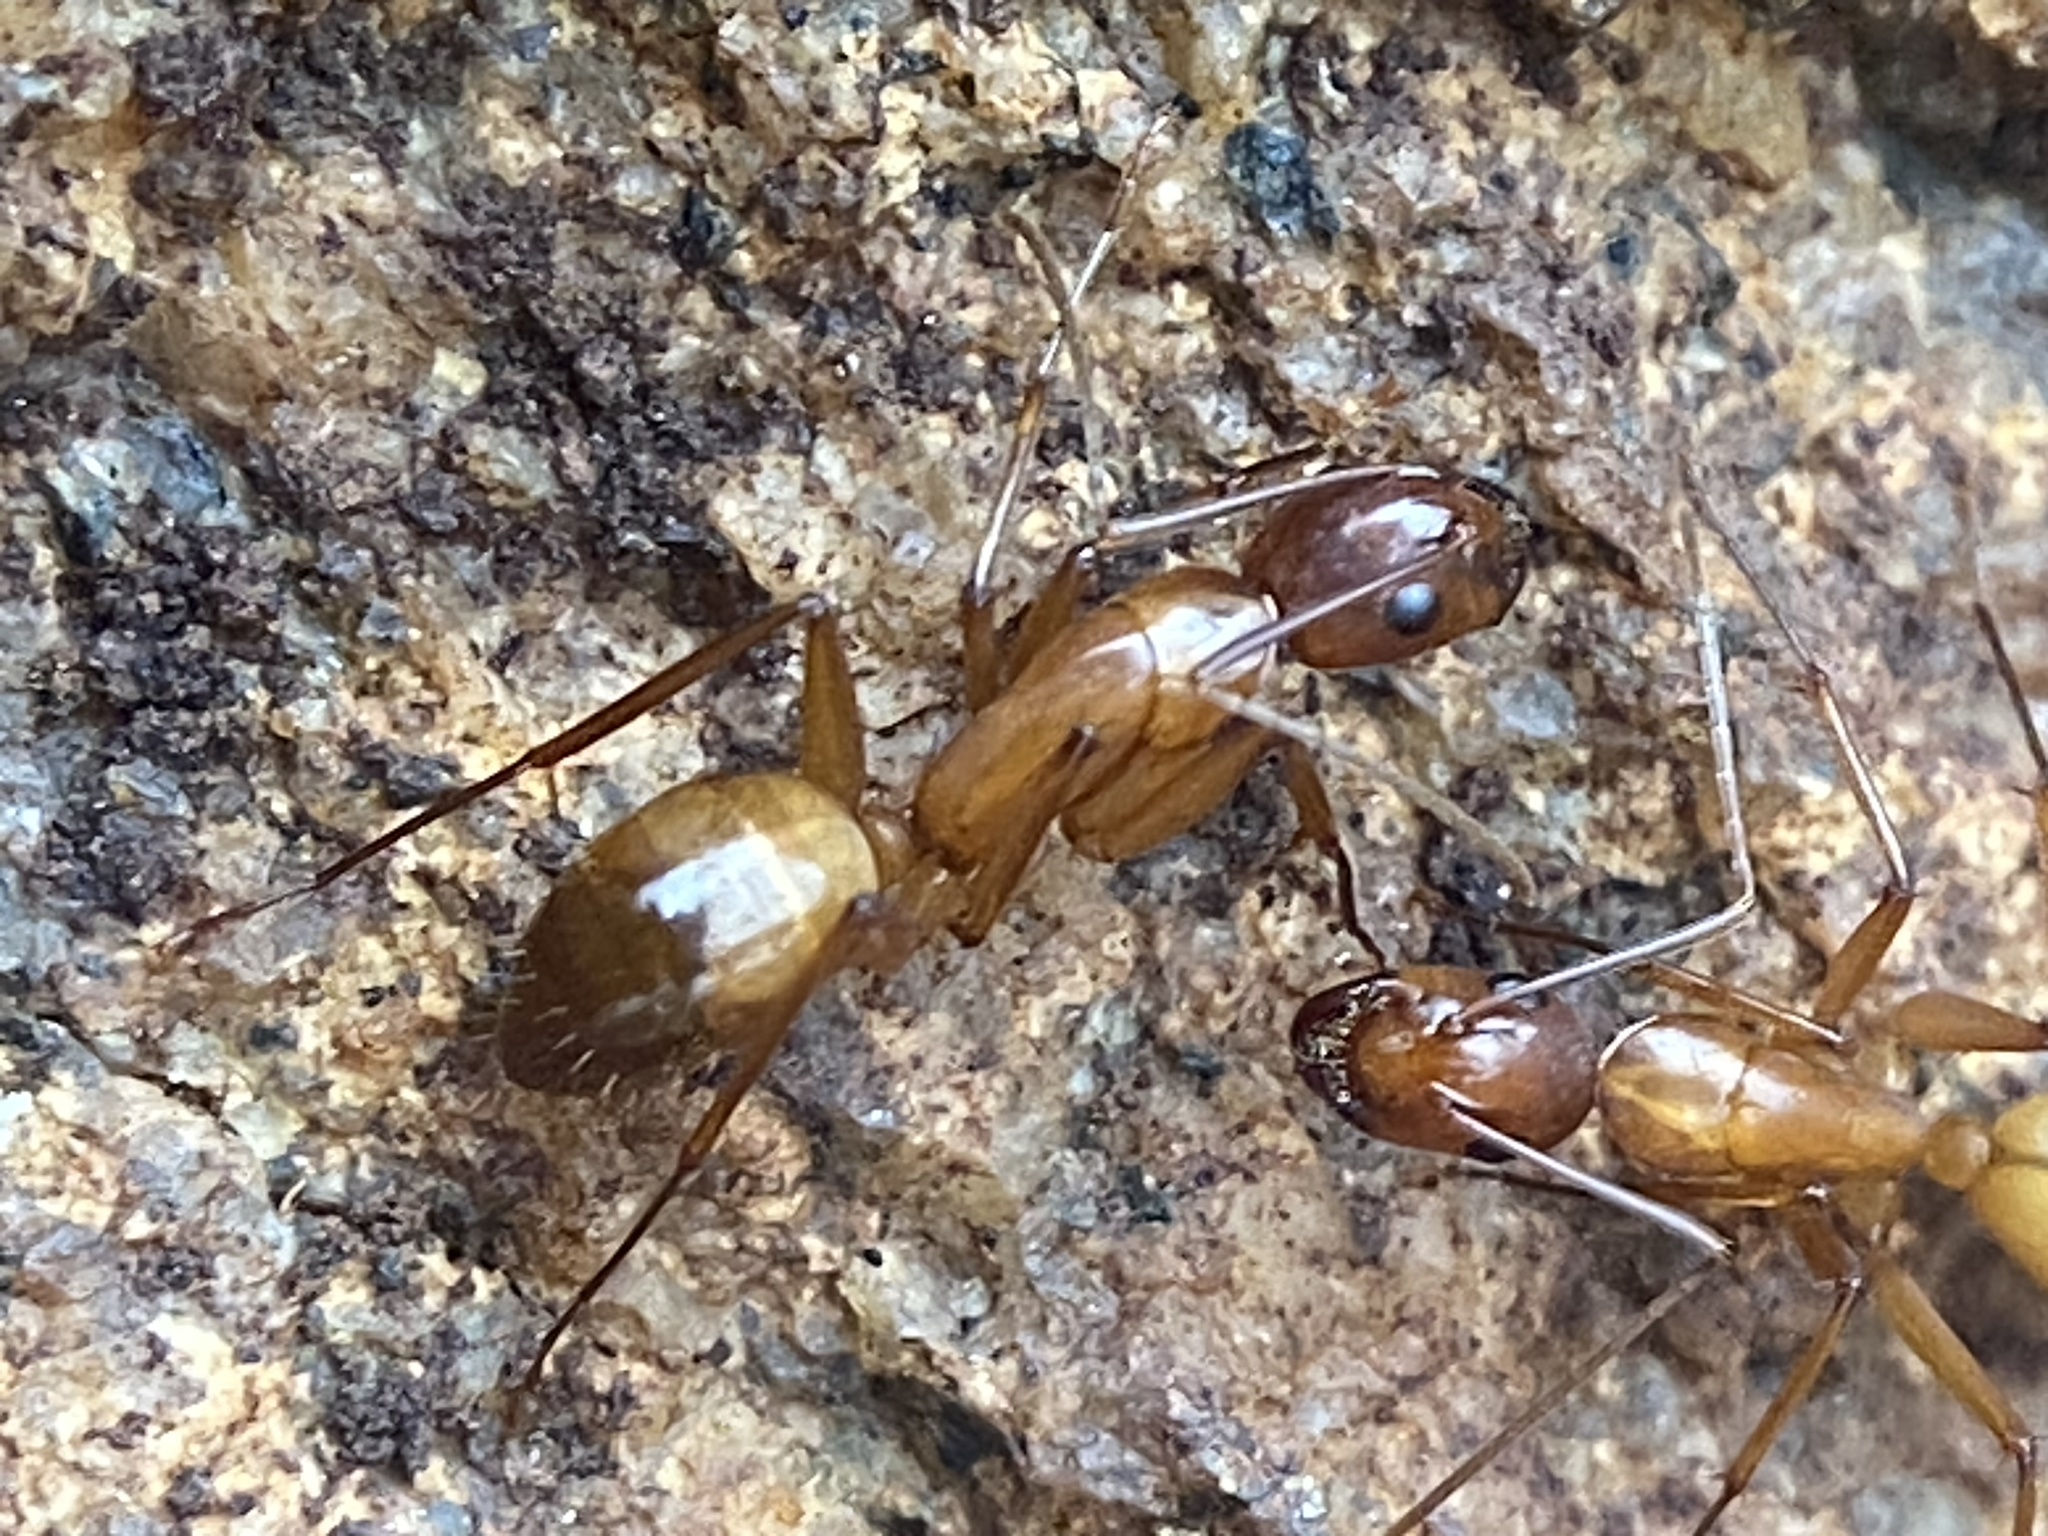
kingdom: Animalia
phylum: Arthropoda
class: Insecta
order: Hymenoptera
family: Formicidae
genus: Camponotus
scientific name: Camponotus castaneus
